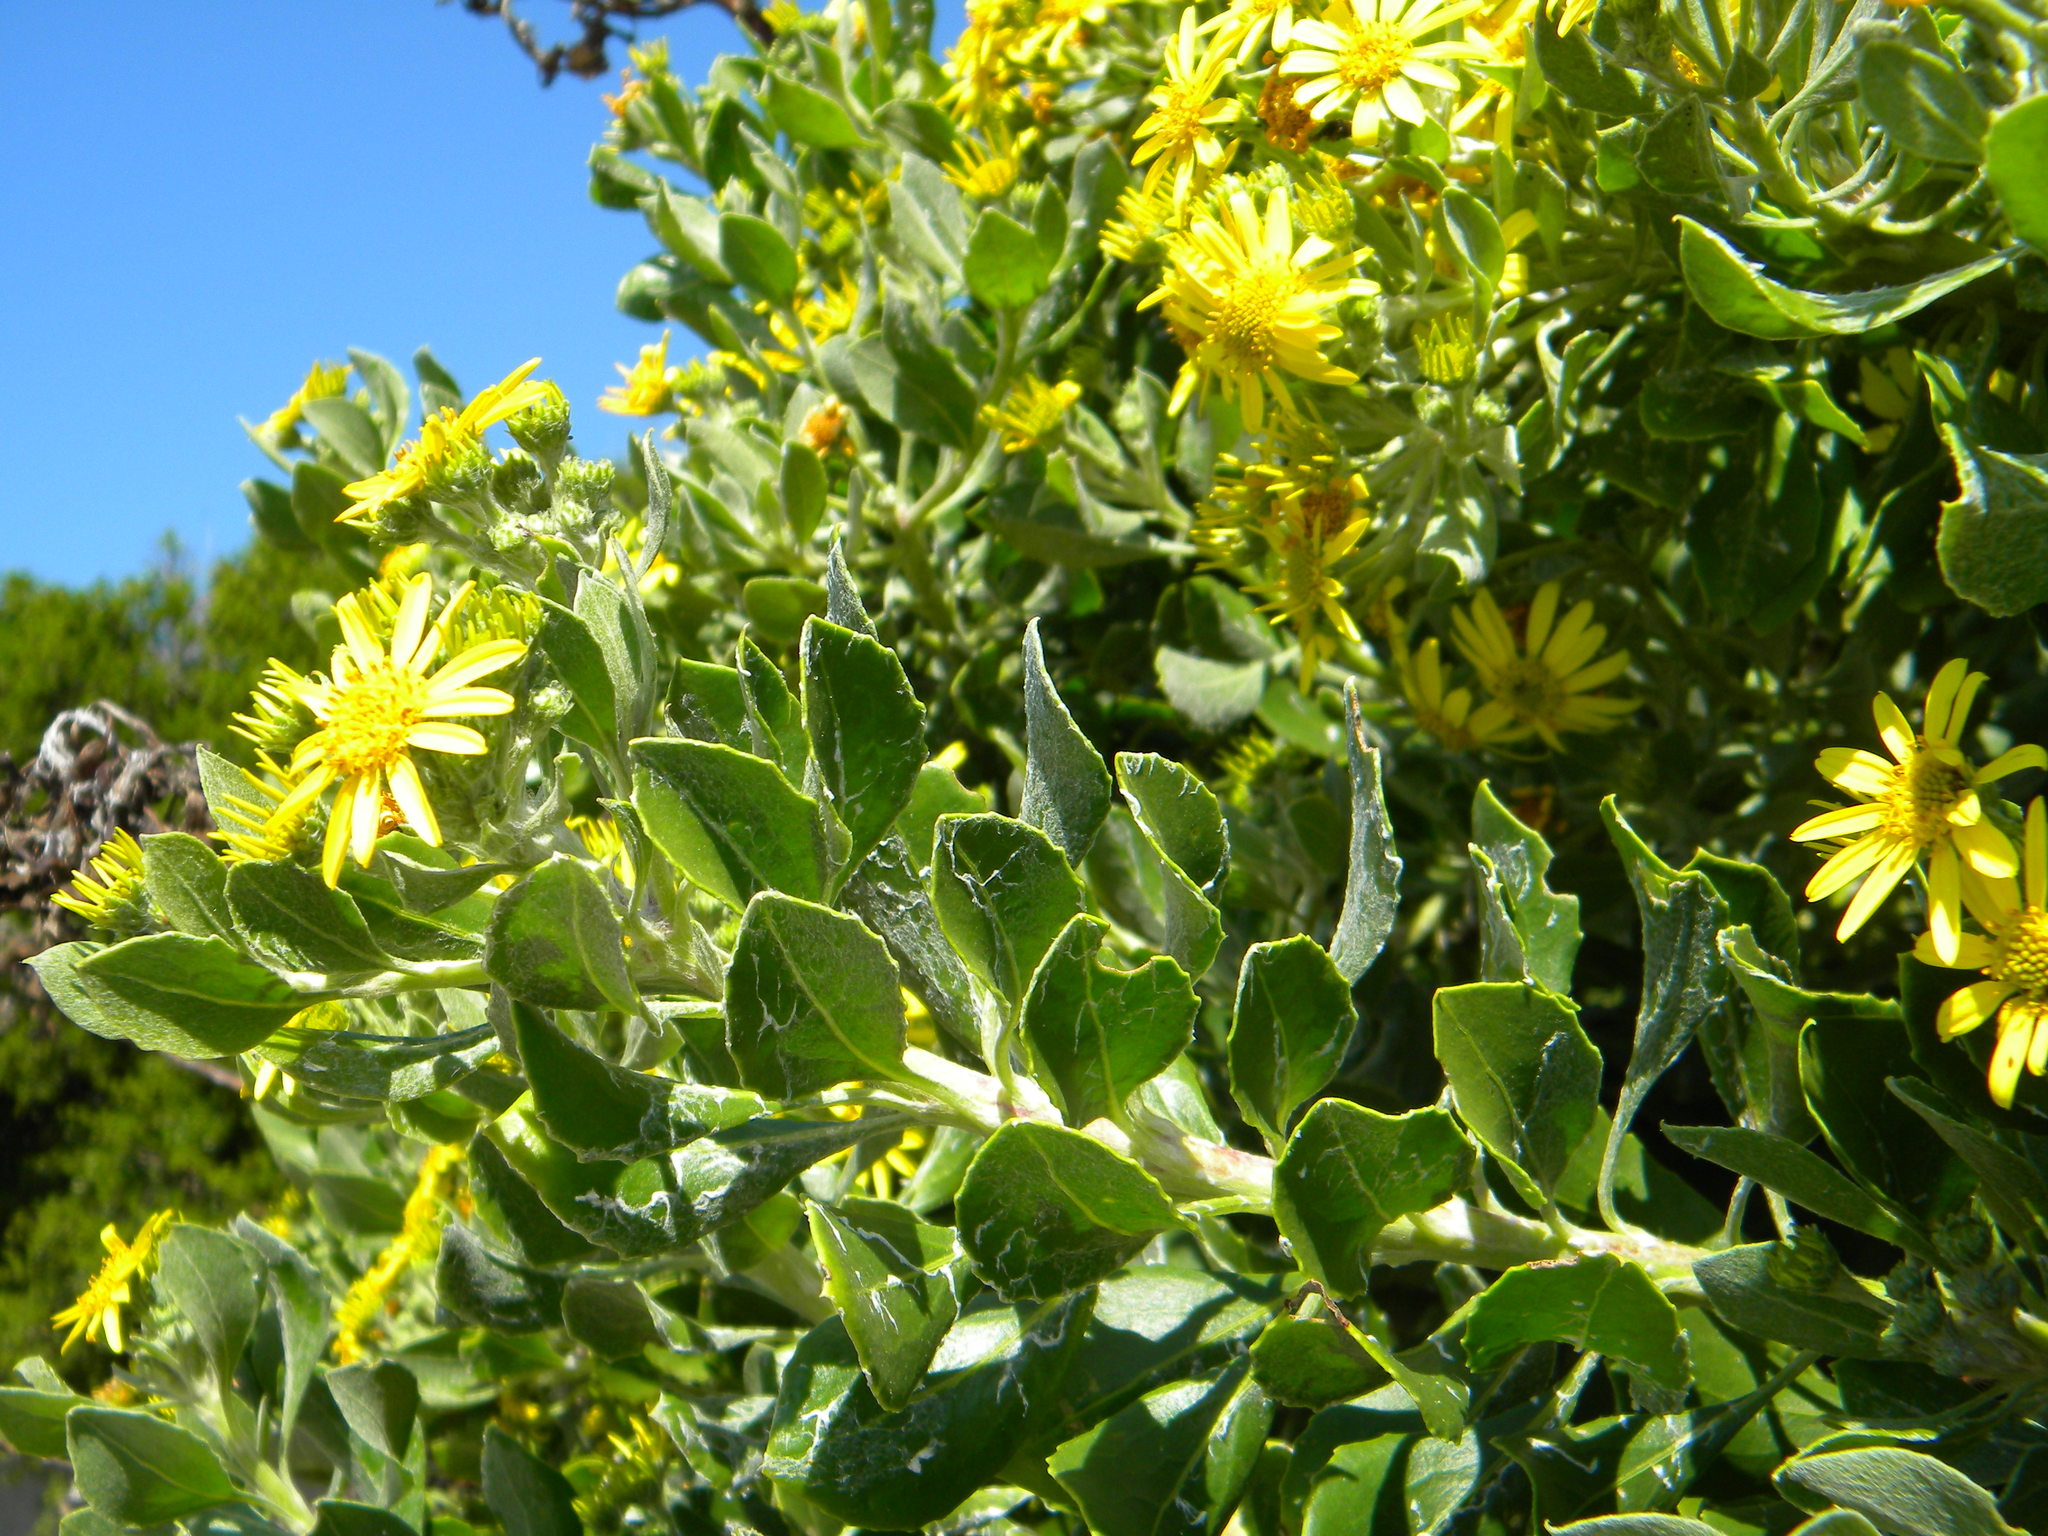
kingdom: Plantae
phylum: Tracheophyta
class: Magnoliopsida
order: Asterales
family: Asteraceae
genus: Osteospermum
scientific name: Osteospermum moniliferum
